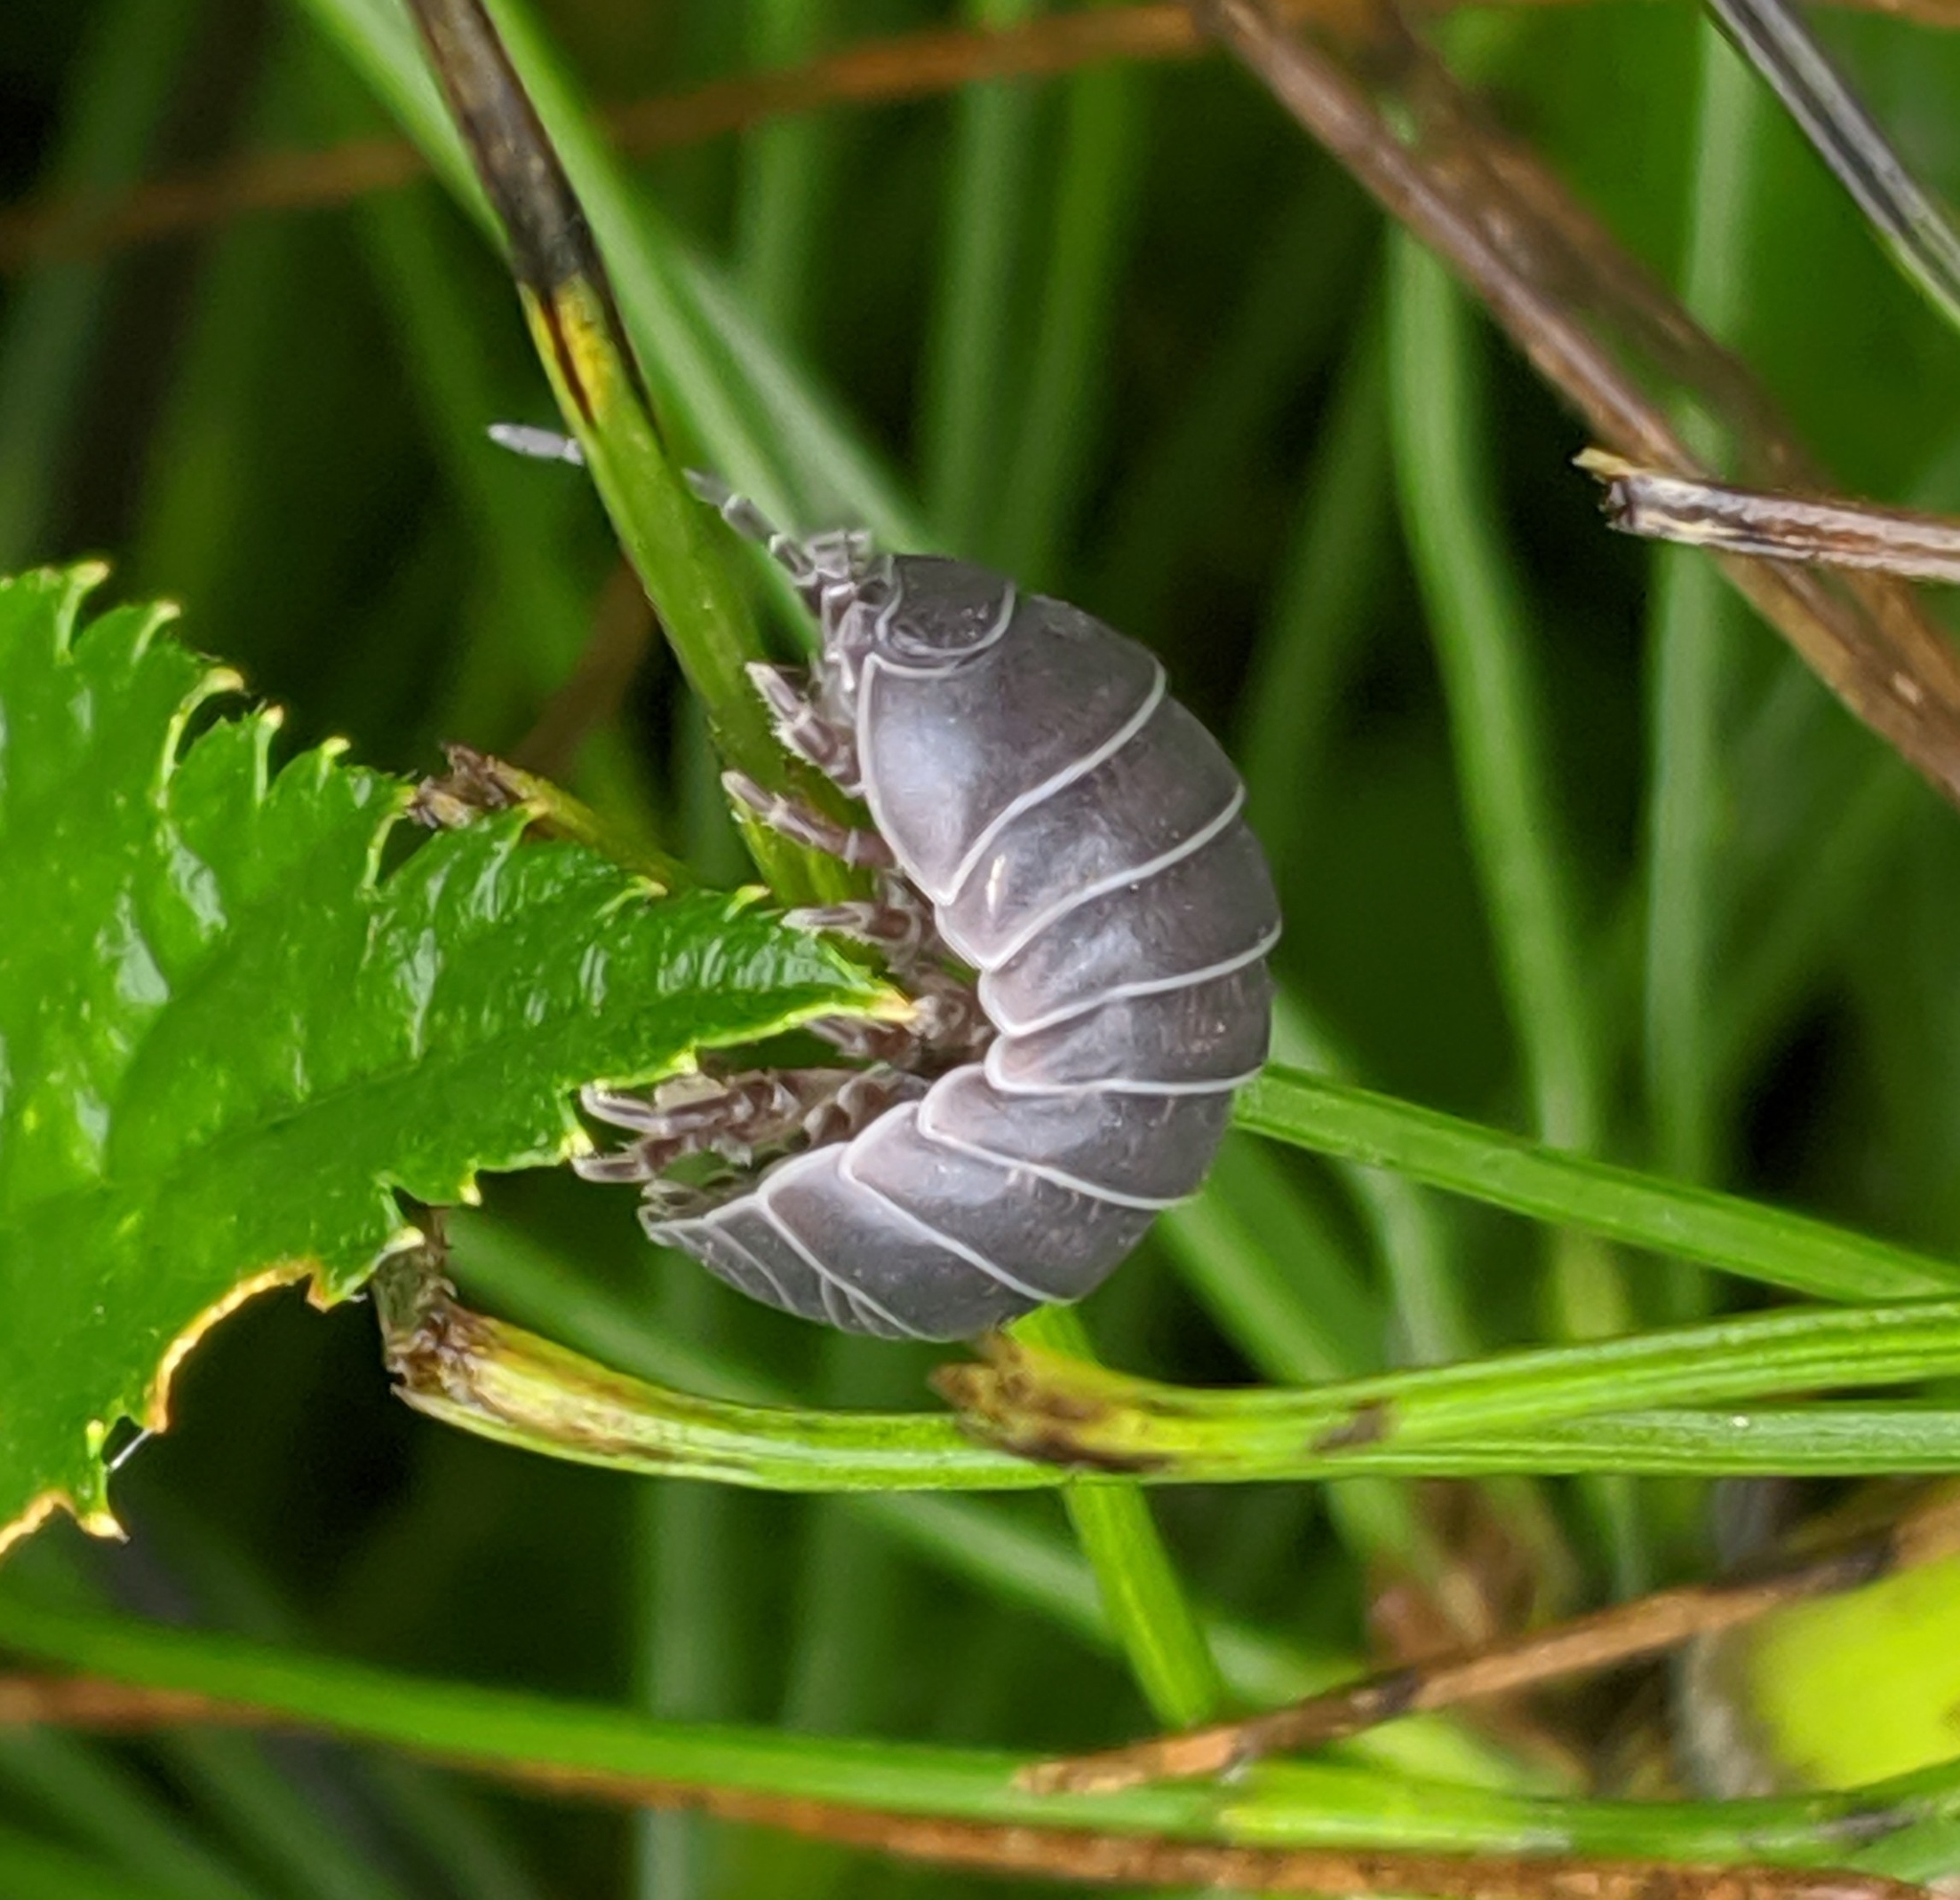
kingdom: Animalia
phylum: Arthropoda
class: Malacostraca
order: Isopoda
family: Armadillidiidae
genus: Armadillidium
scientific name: Armadillidium vulgare
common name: Common pill woodlouse
